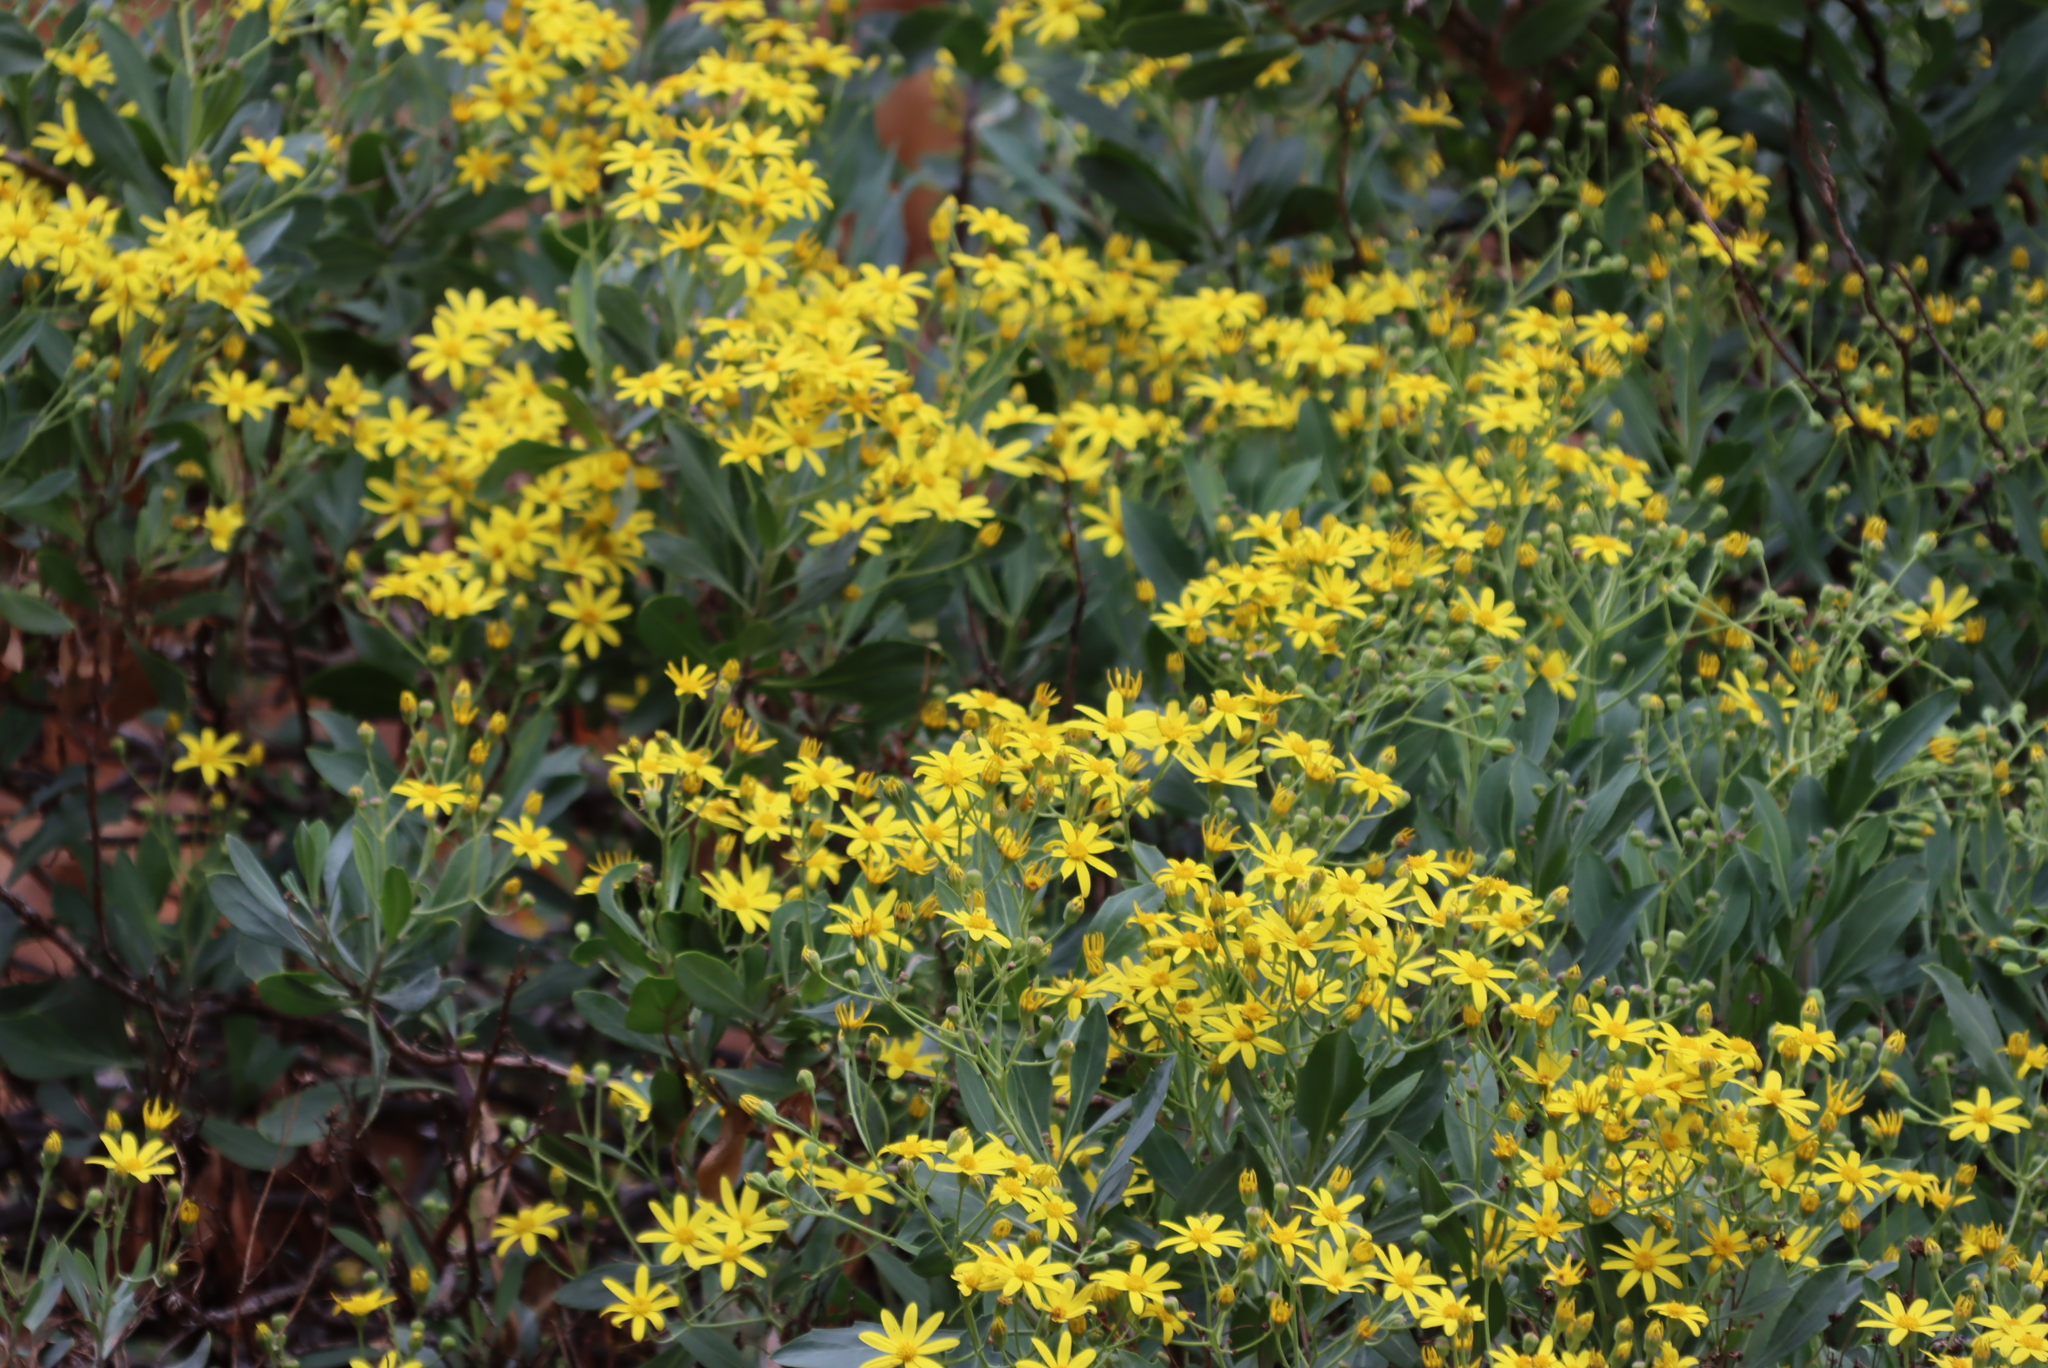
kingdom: Plantae
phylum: Tracheophyta
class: Magnoliopsida
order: Asterales
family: Asteraceae
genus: Othonna
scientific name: Othonna osteospermoides
